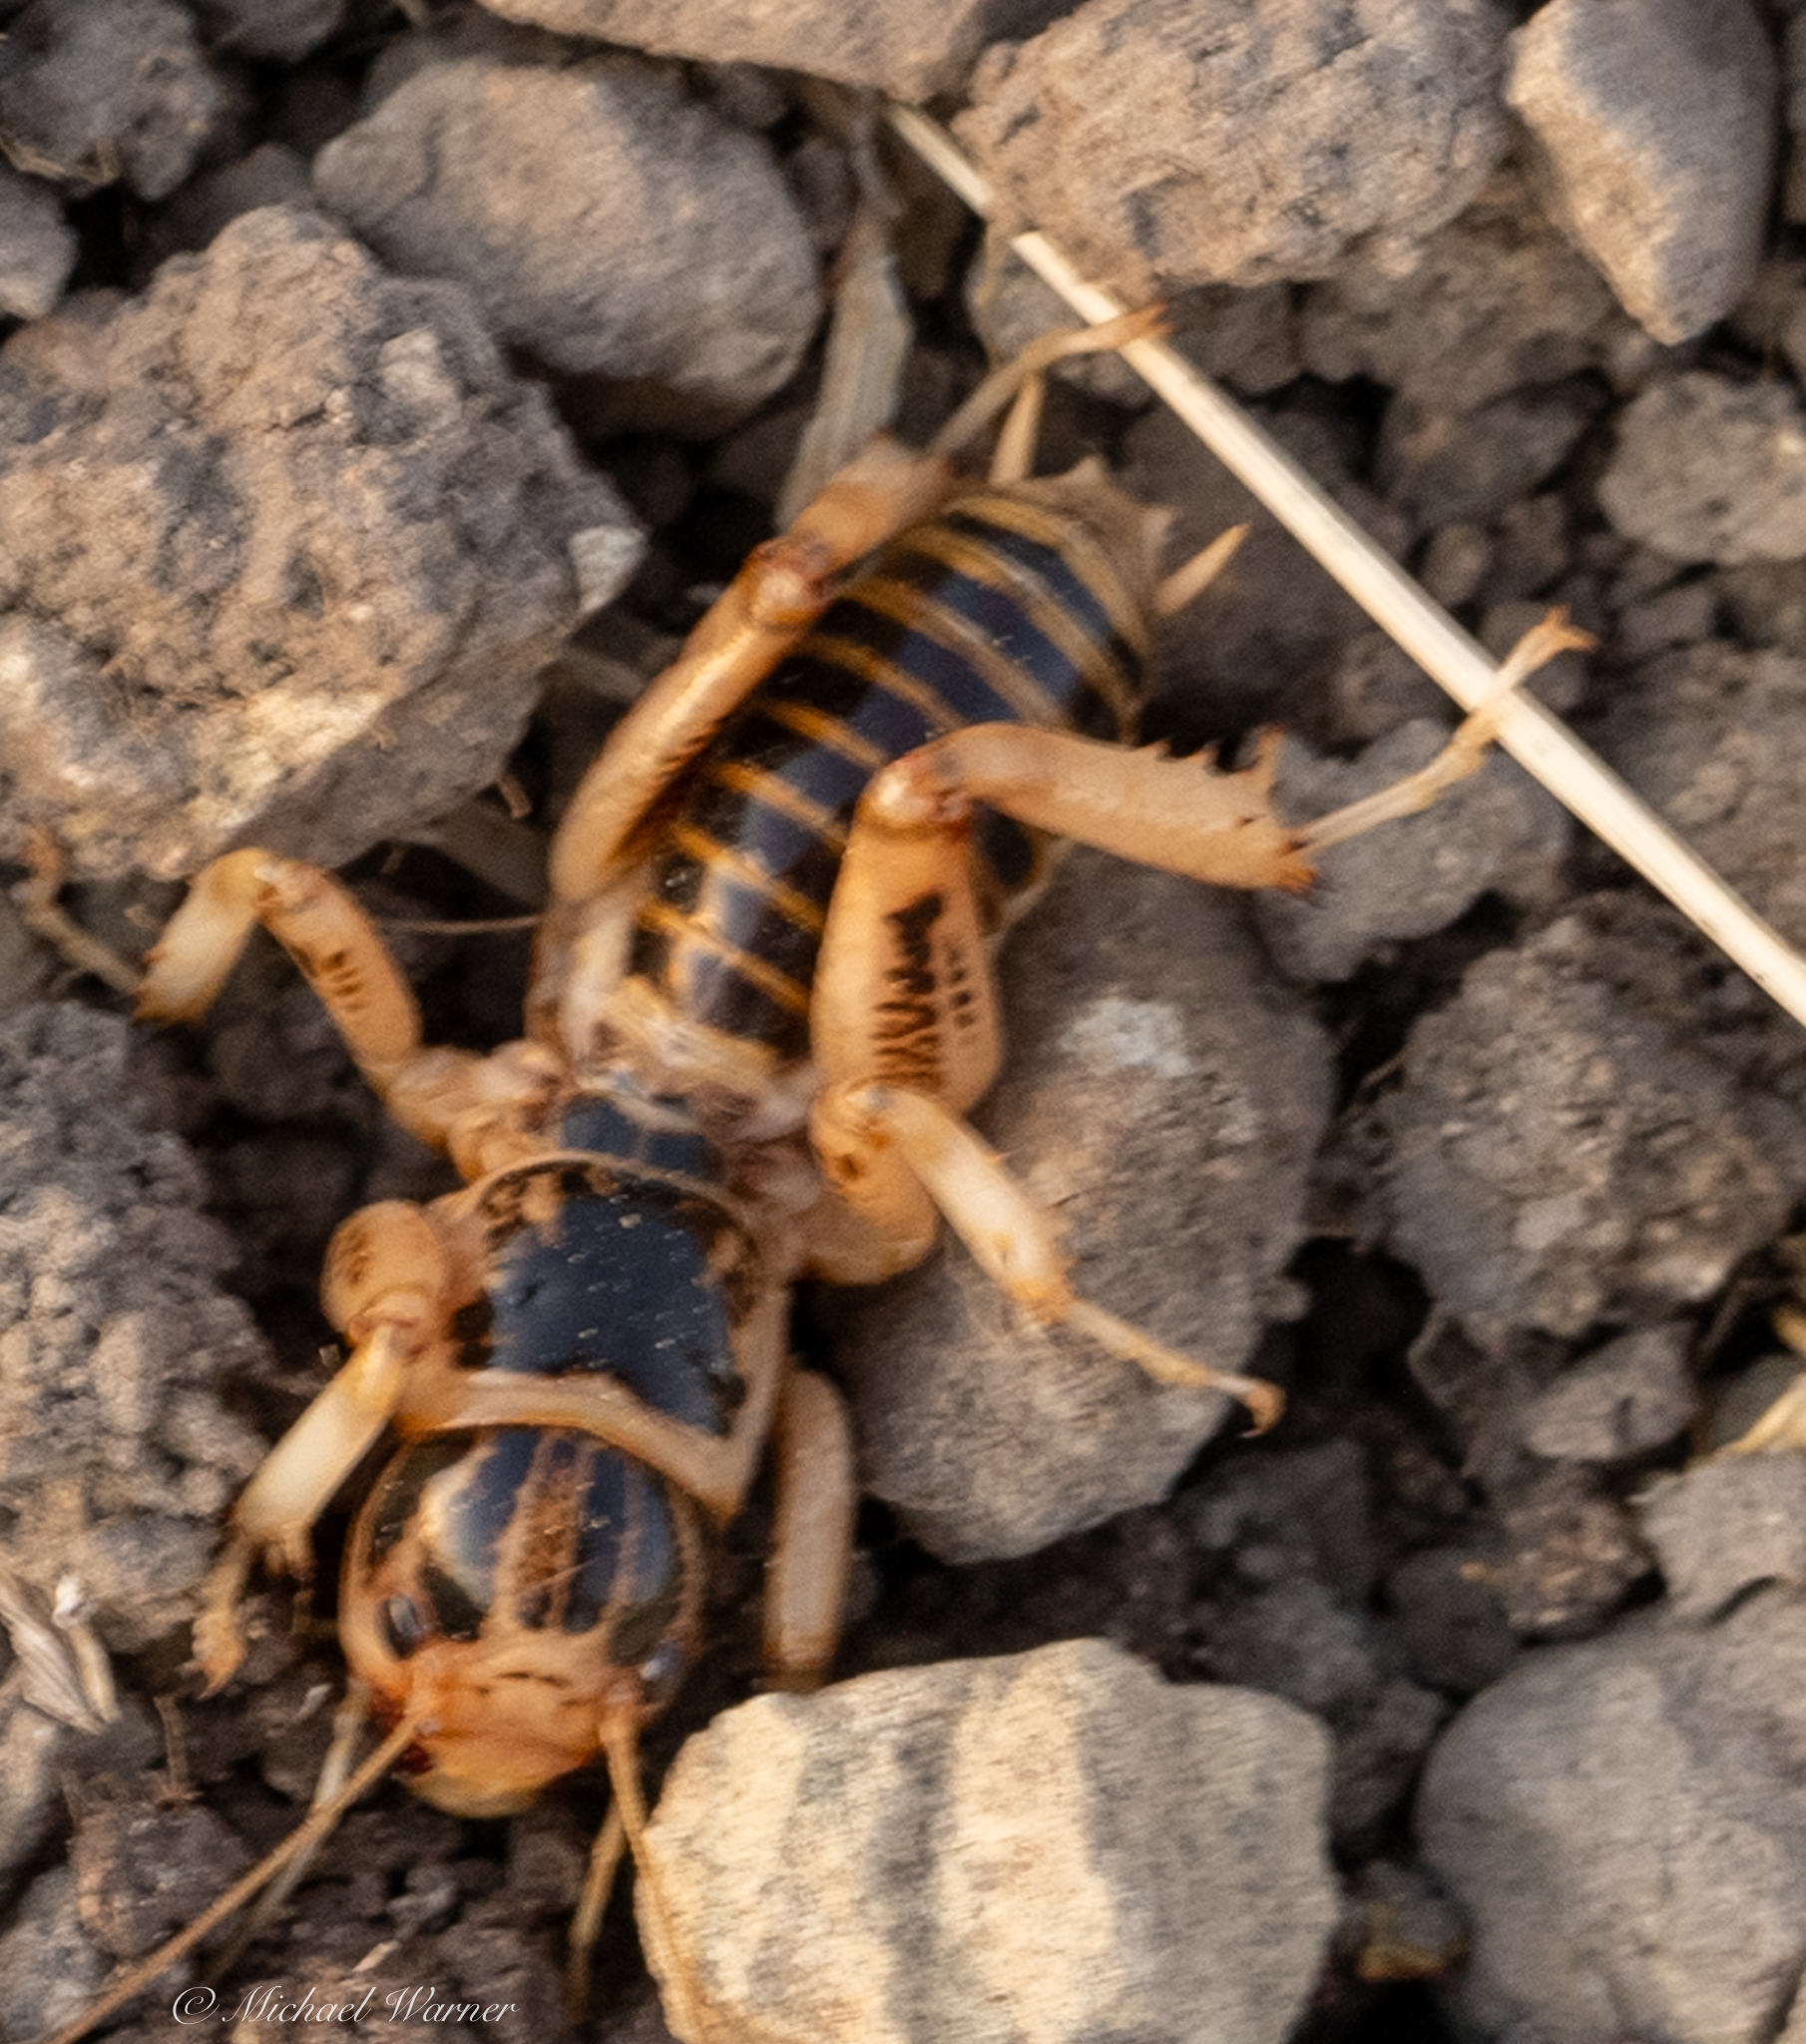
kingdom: Animalia
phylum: Arthropoda
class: Insecta
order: Orthoptera
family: Stenopelmatidae
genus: Ammopelmatus
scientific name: Ammopelmatus pictus
